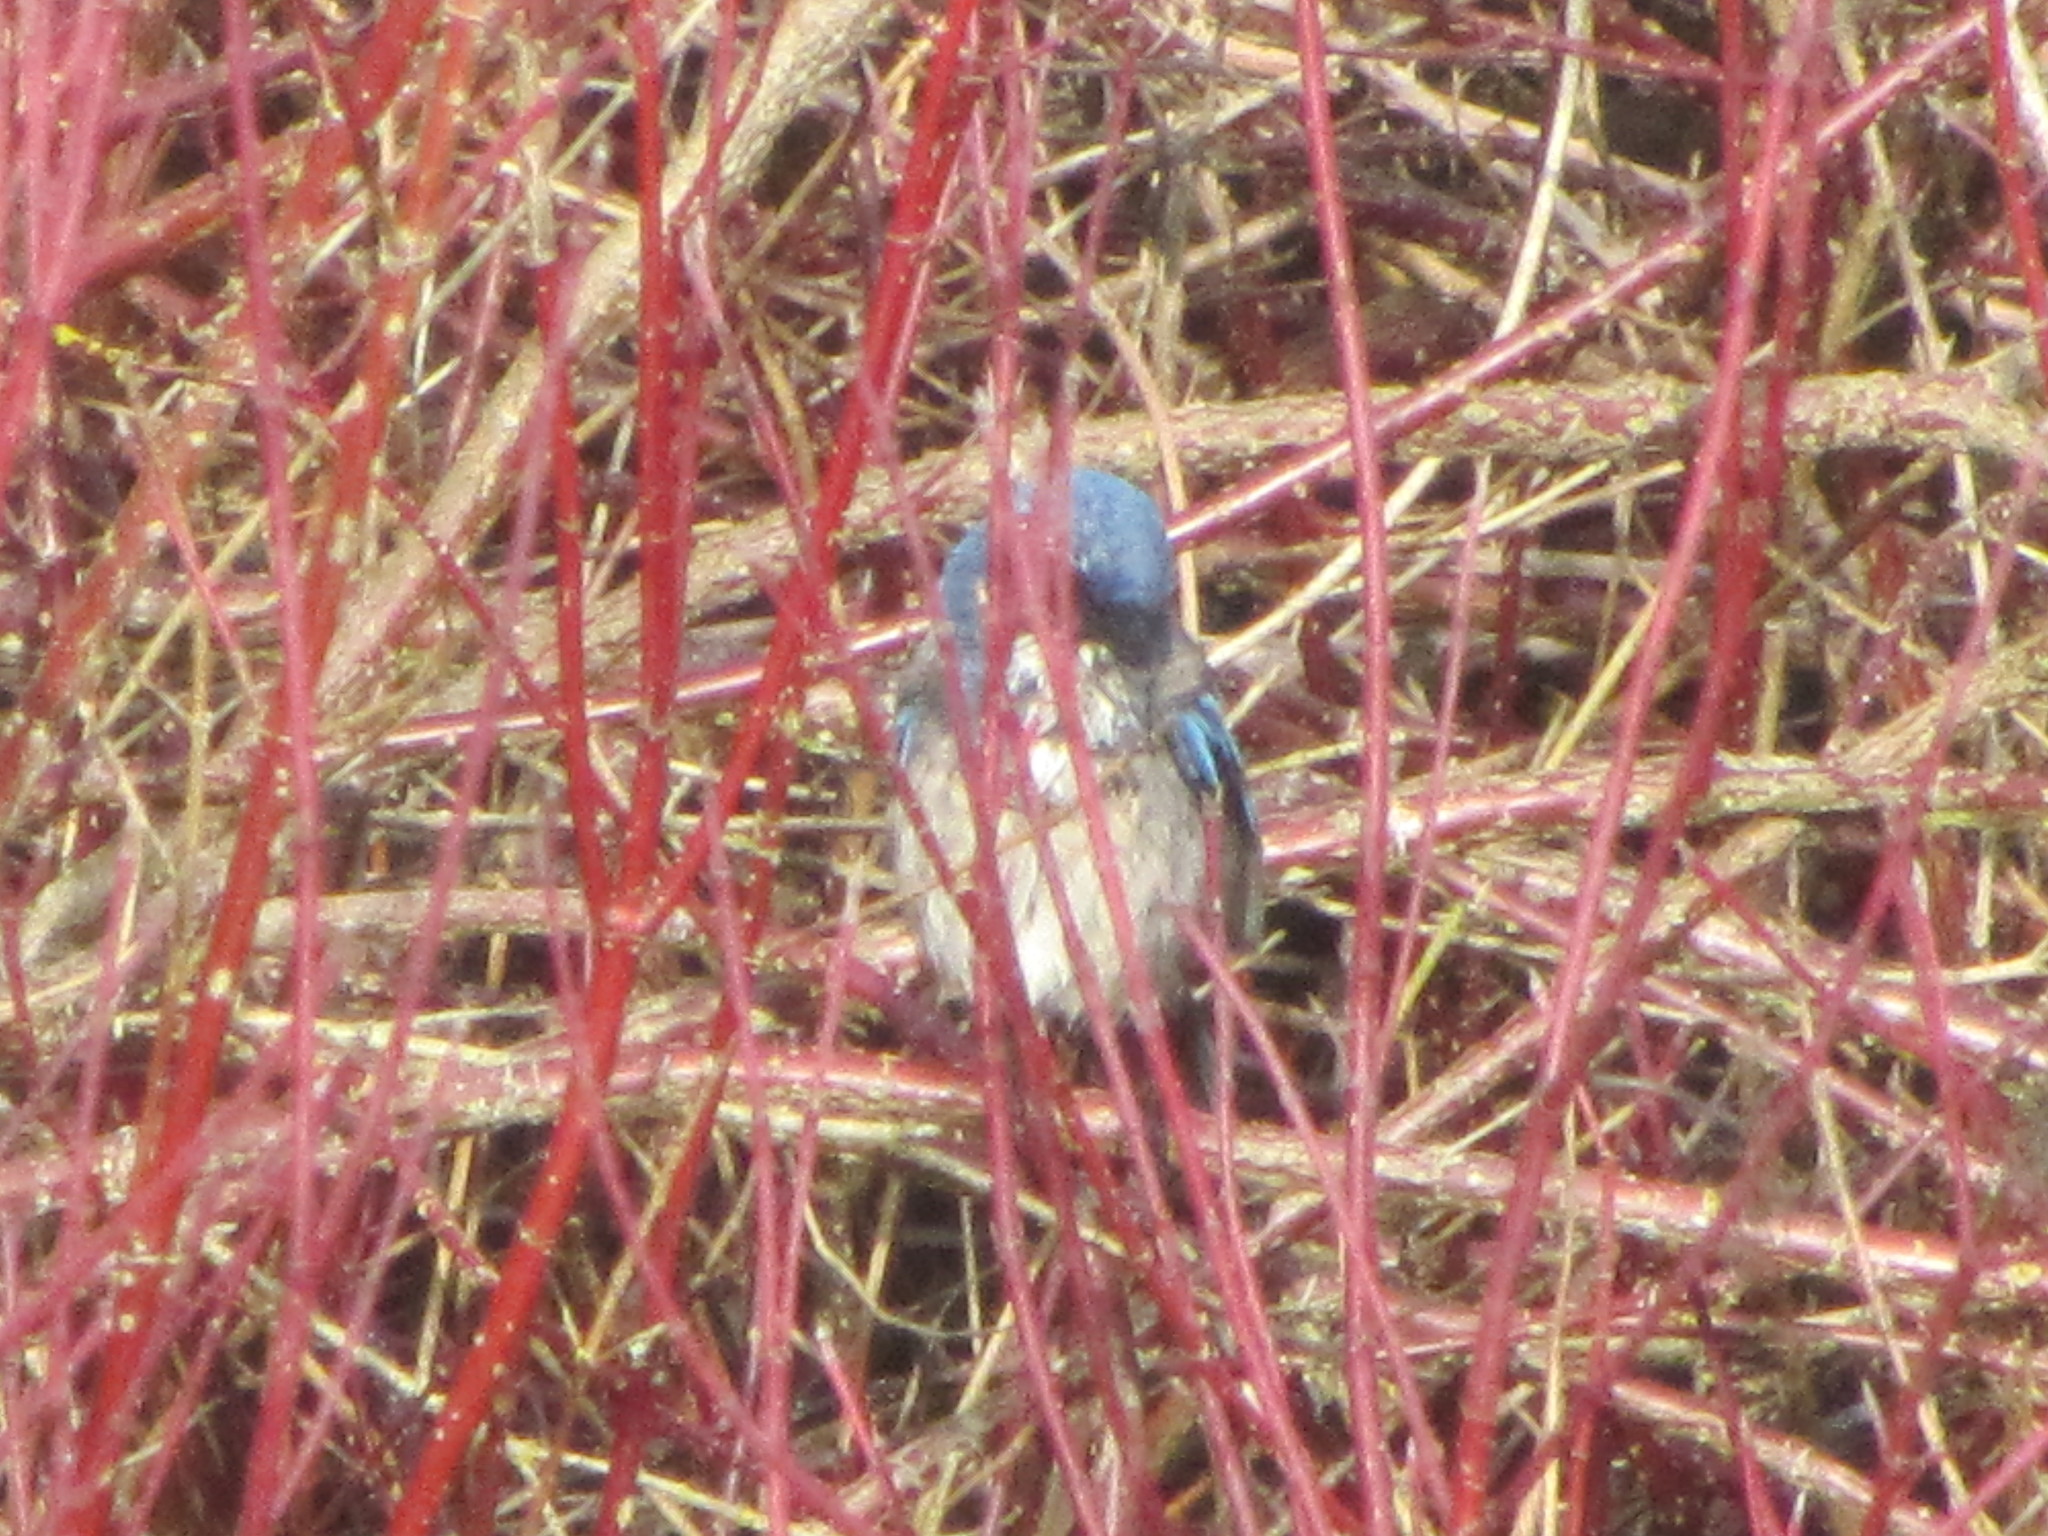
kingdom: Animalia
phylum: Chordata
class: Aves
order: Passeriformes
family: Corvidae
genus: Aphelocoma
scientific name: Aphelocoma californica
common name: California scrub-jay
